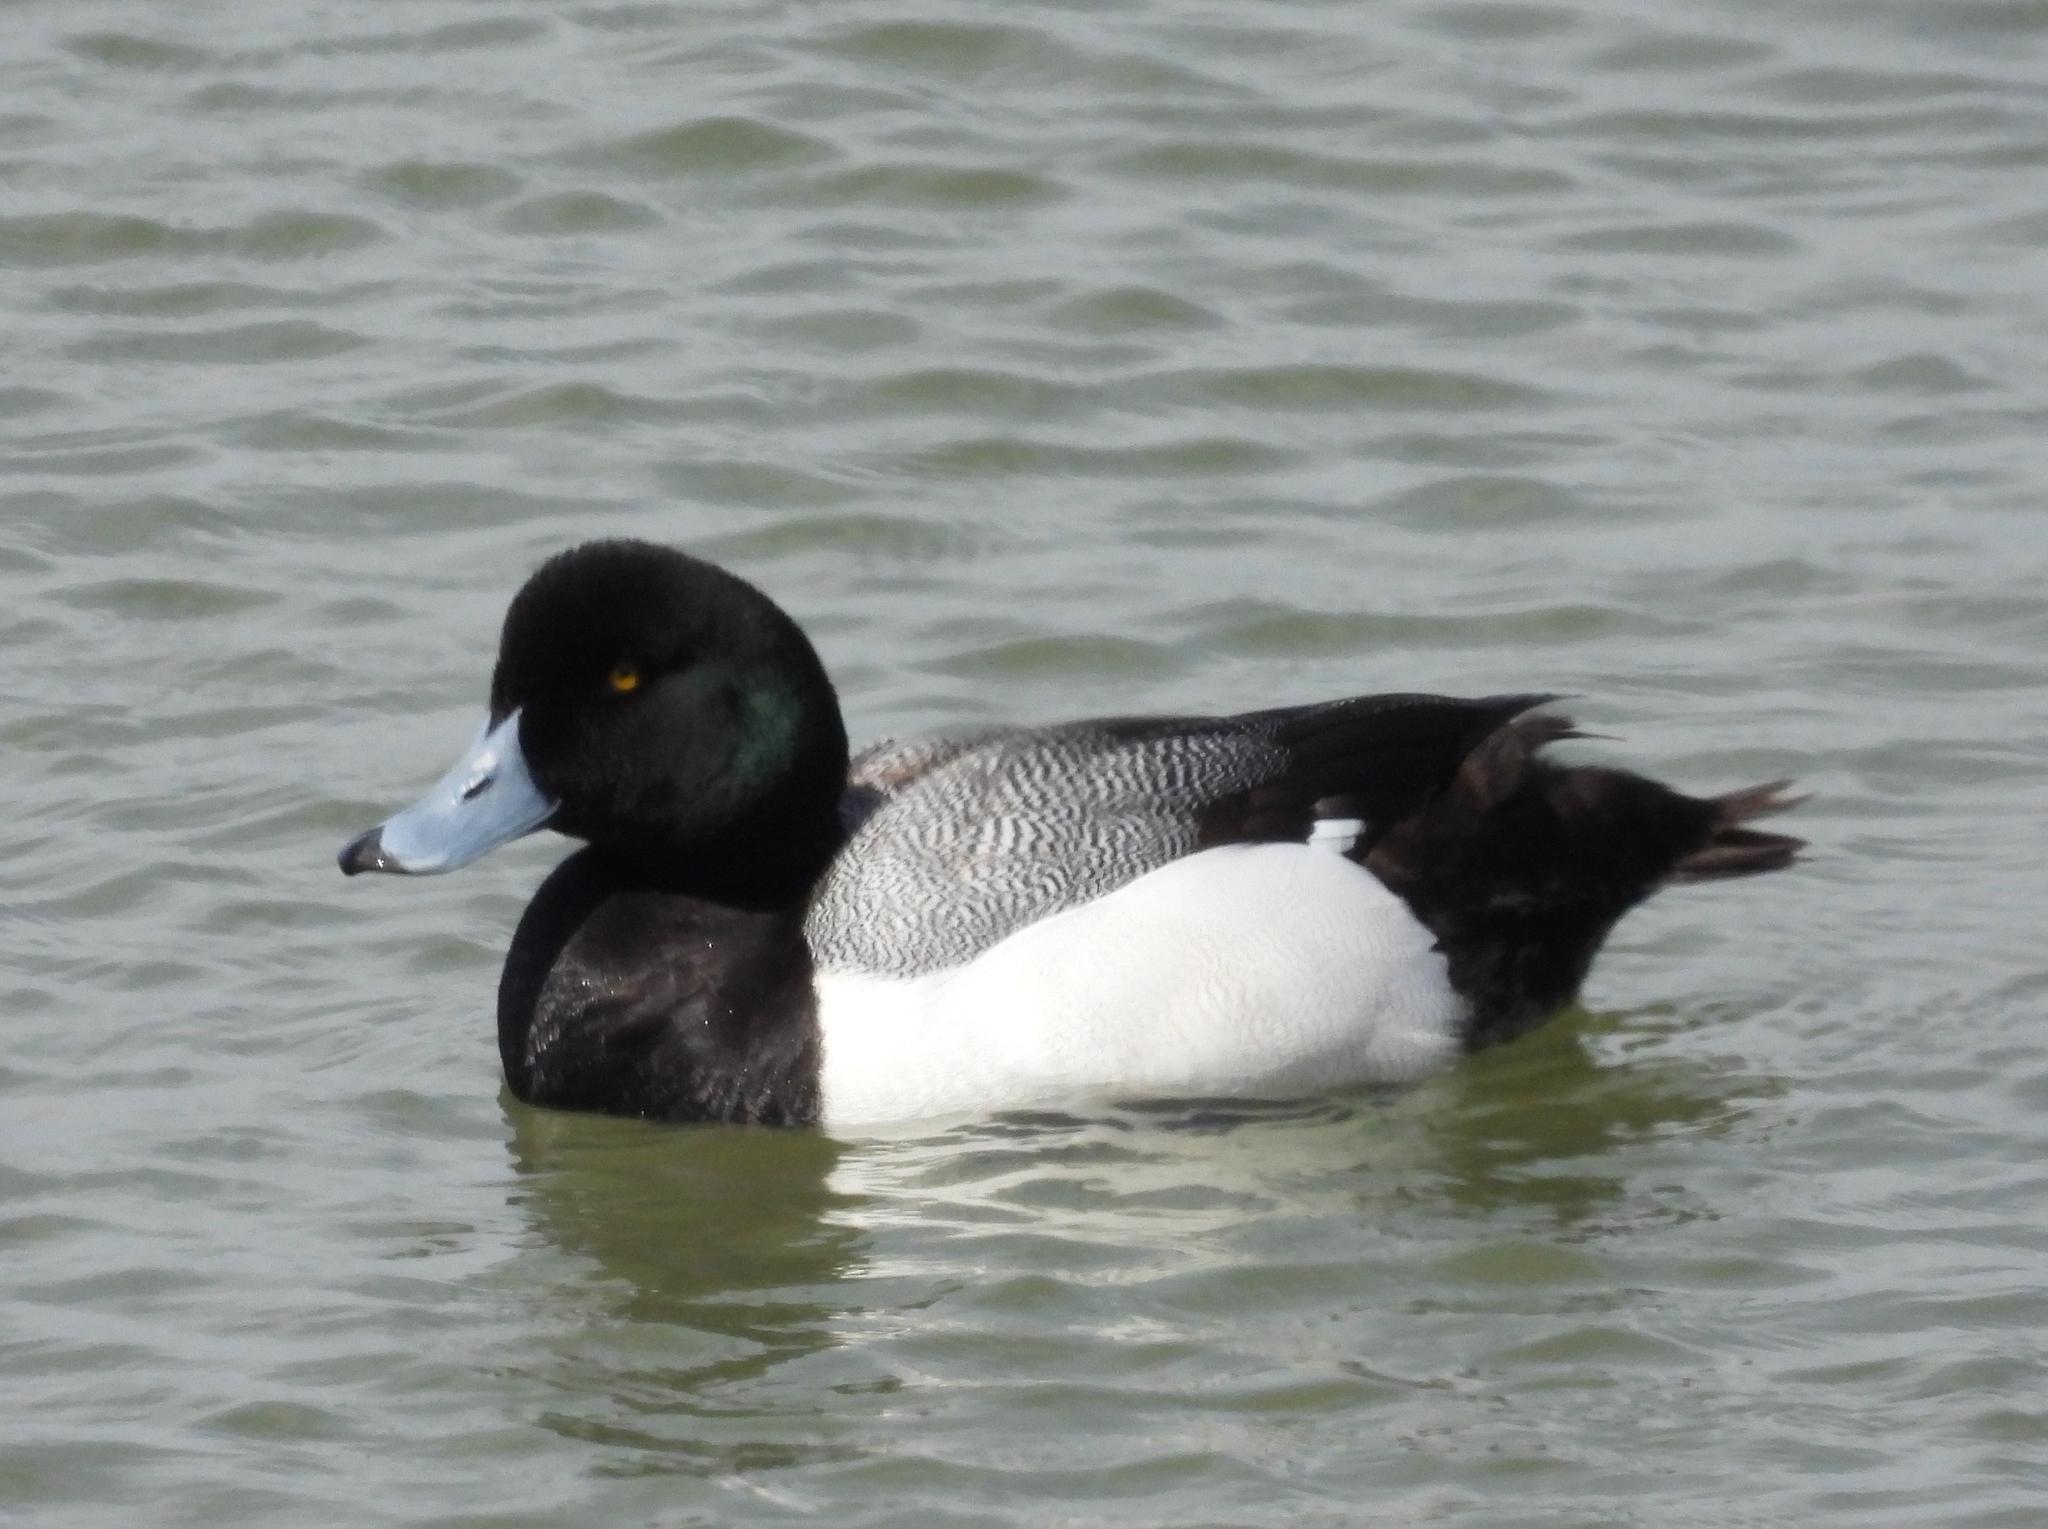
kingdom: Animalia
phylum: Chordata
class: Aves
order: Anseriformes
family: Anatidae
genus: Aythya
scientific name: Aythya marila
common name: Greater scaup
